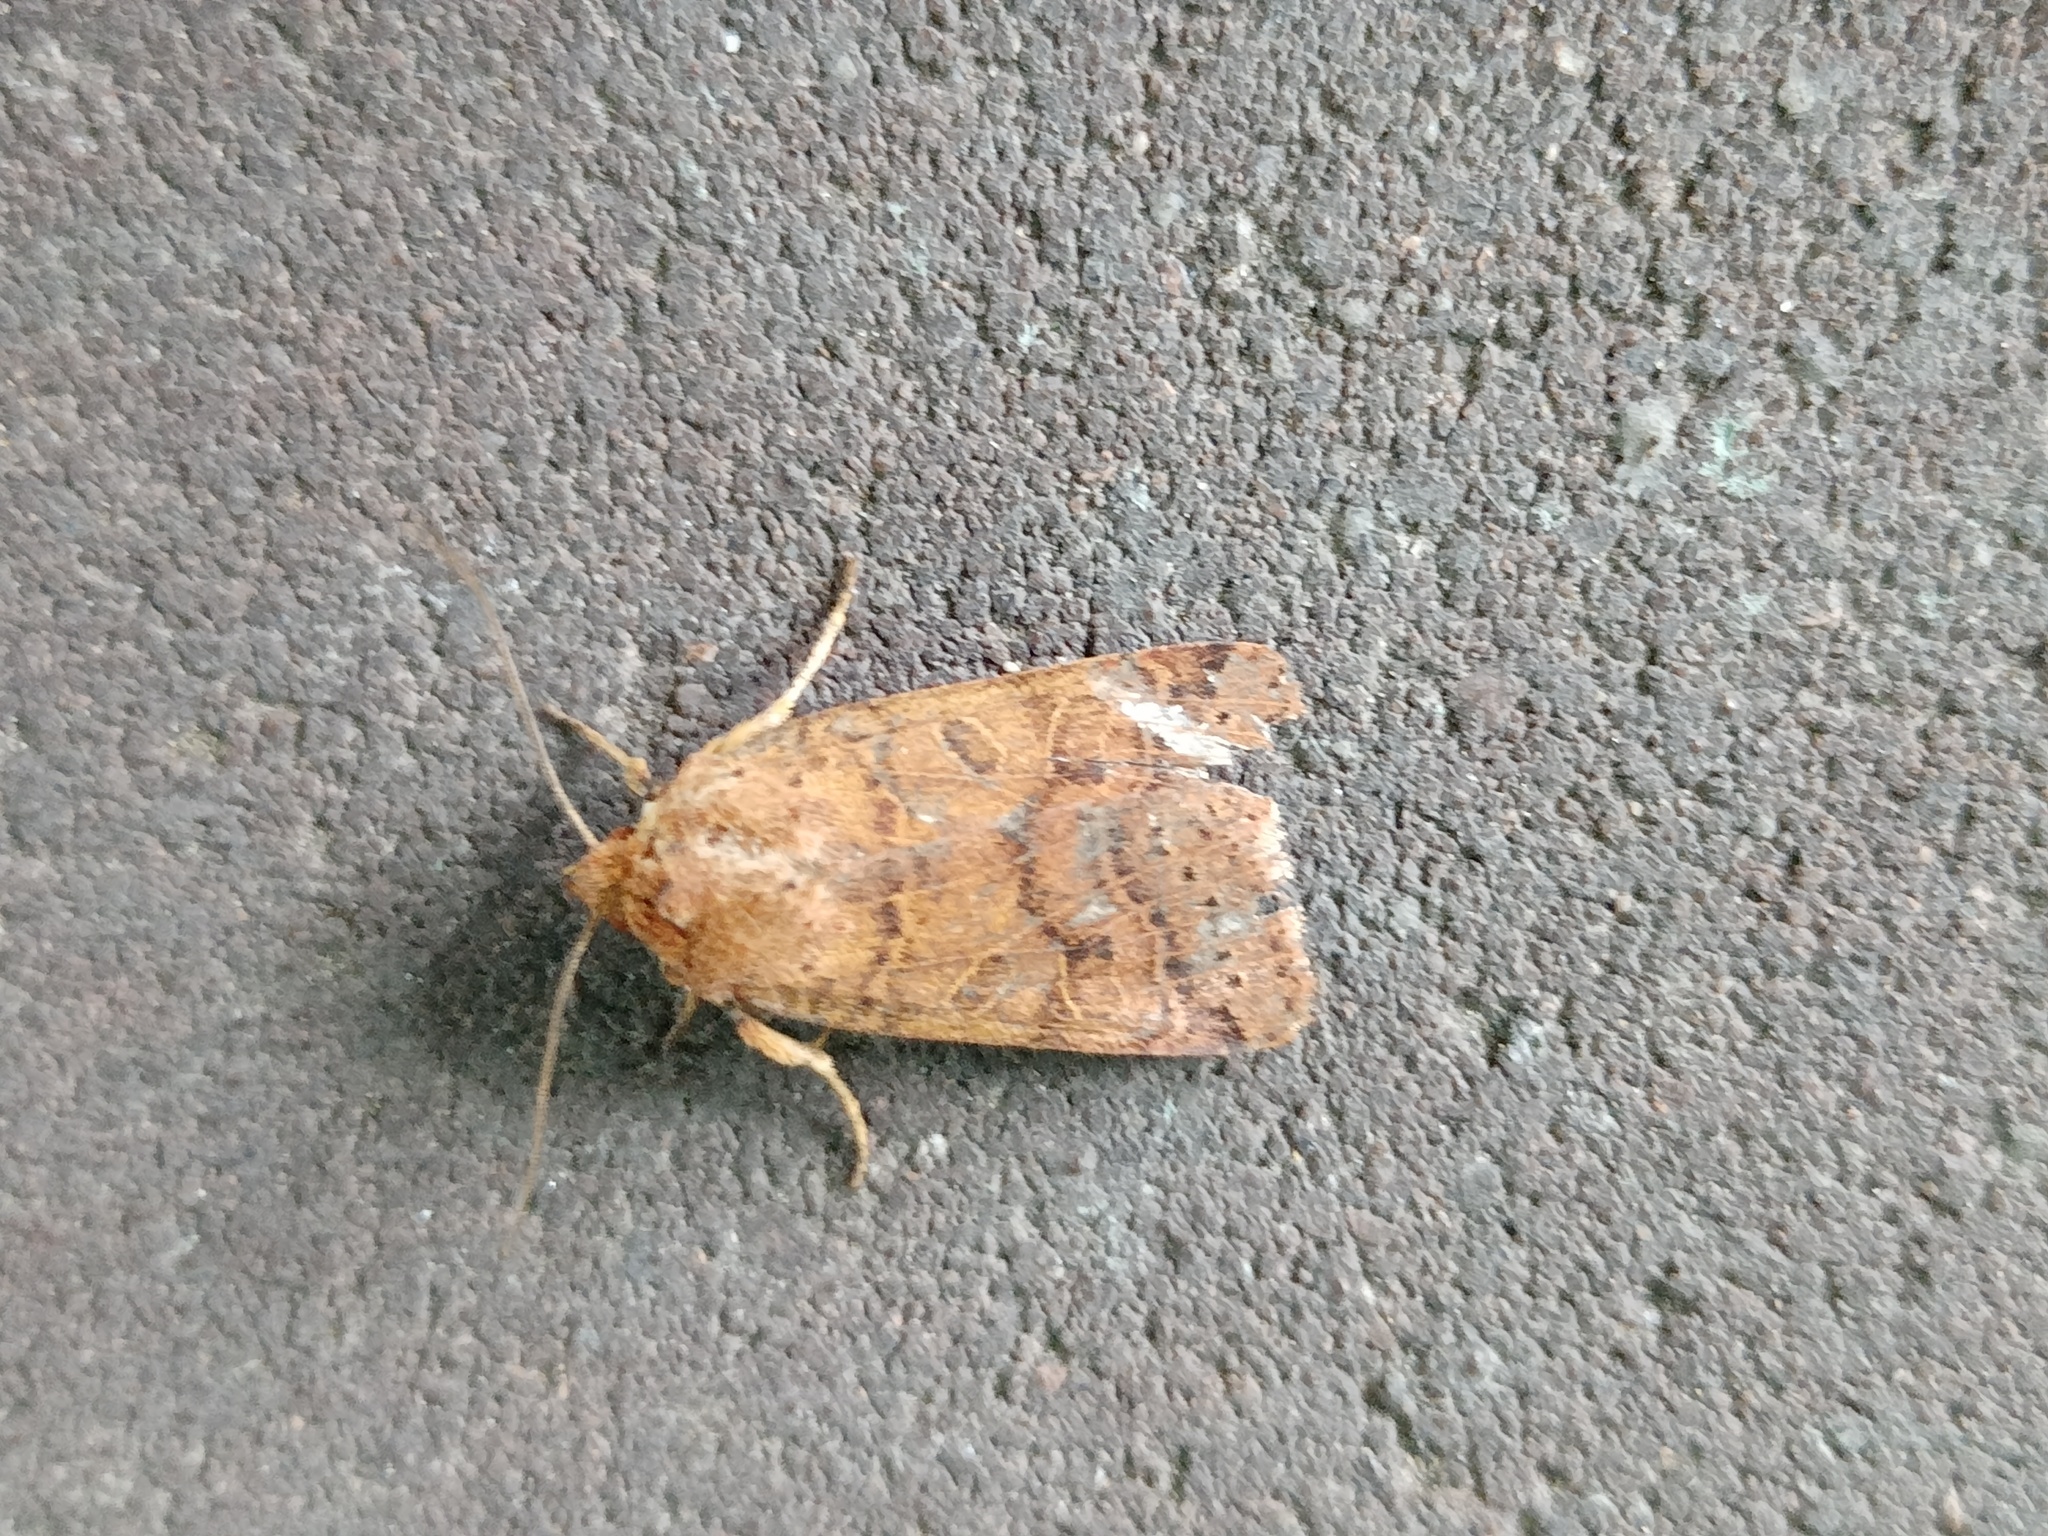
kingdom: Animalia
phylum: Arthropoda
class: Insecta
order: Lepidoptera
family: Noctuidae
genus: Agrochola
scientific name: Agrochola nitida
